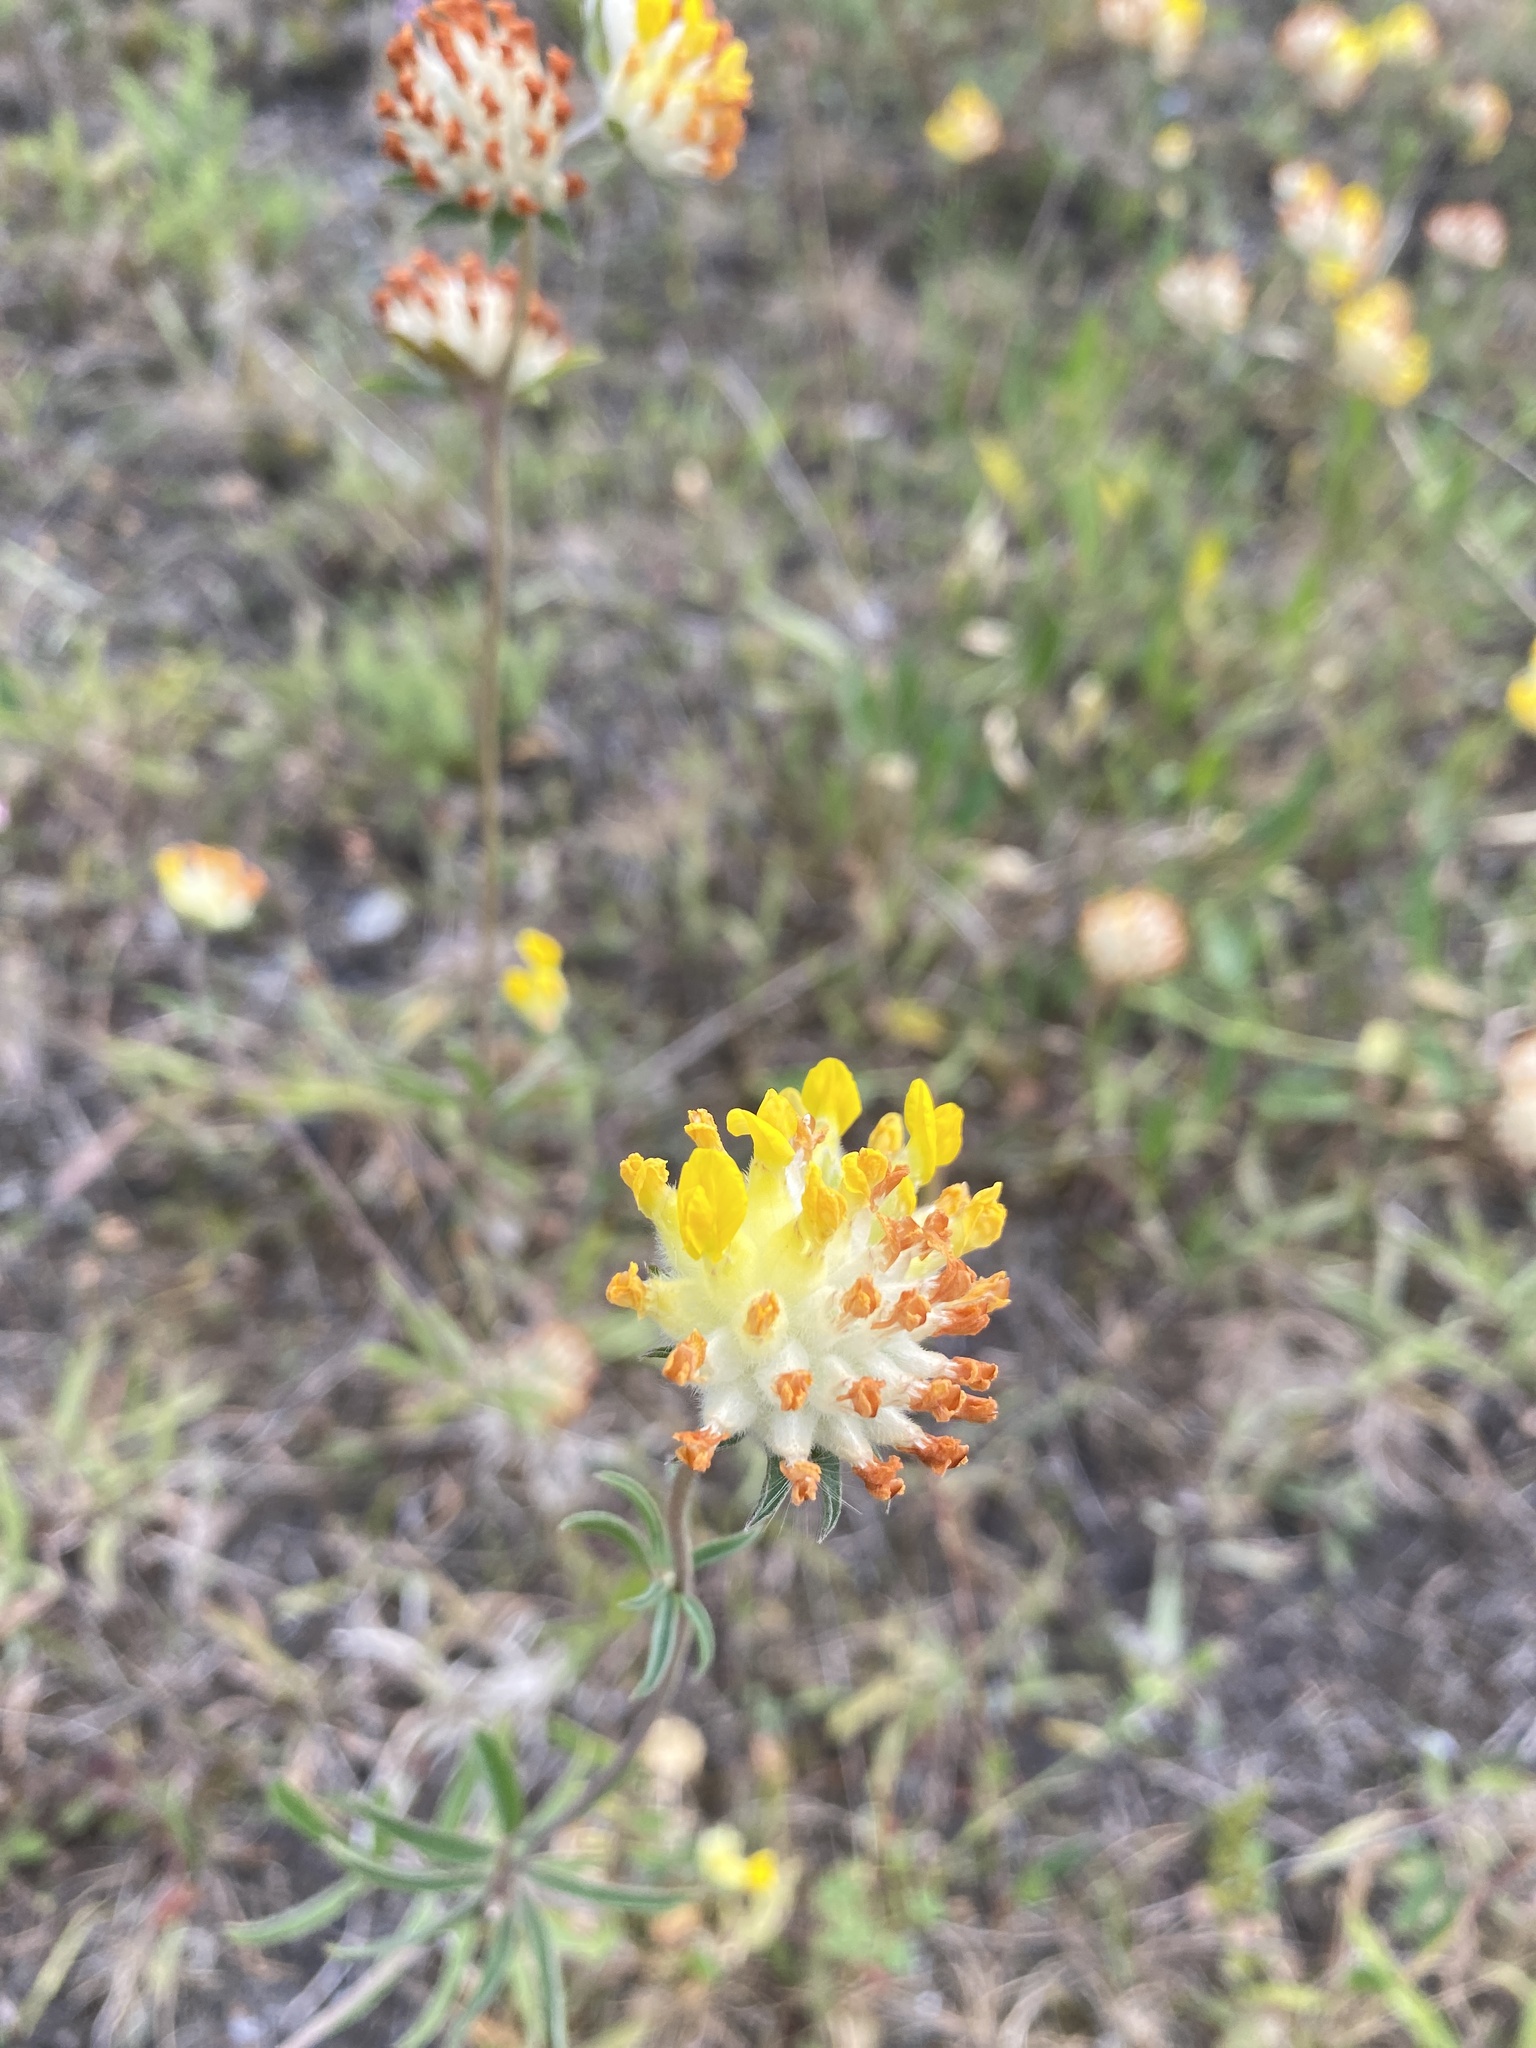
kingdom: Plantae
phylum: Tracheophyta
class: Magnoliopsida
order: Fabales
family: Fabaceae
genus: Anthyllis
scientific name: Anthyllis vulneraria
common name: Kidney vetch
